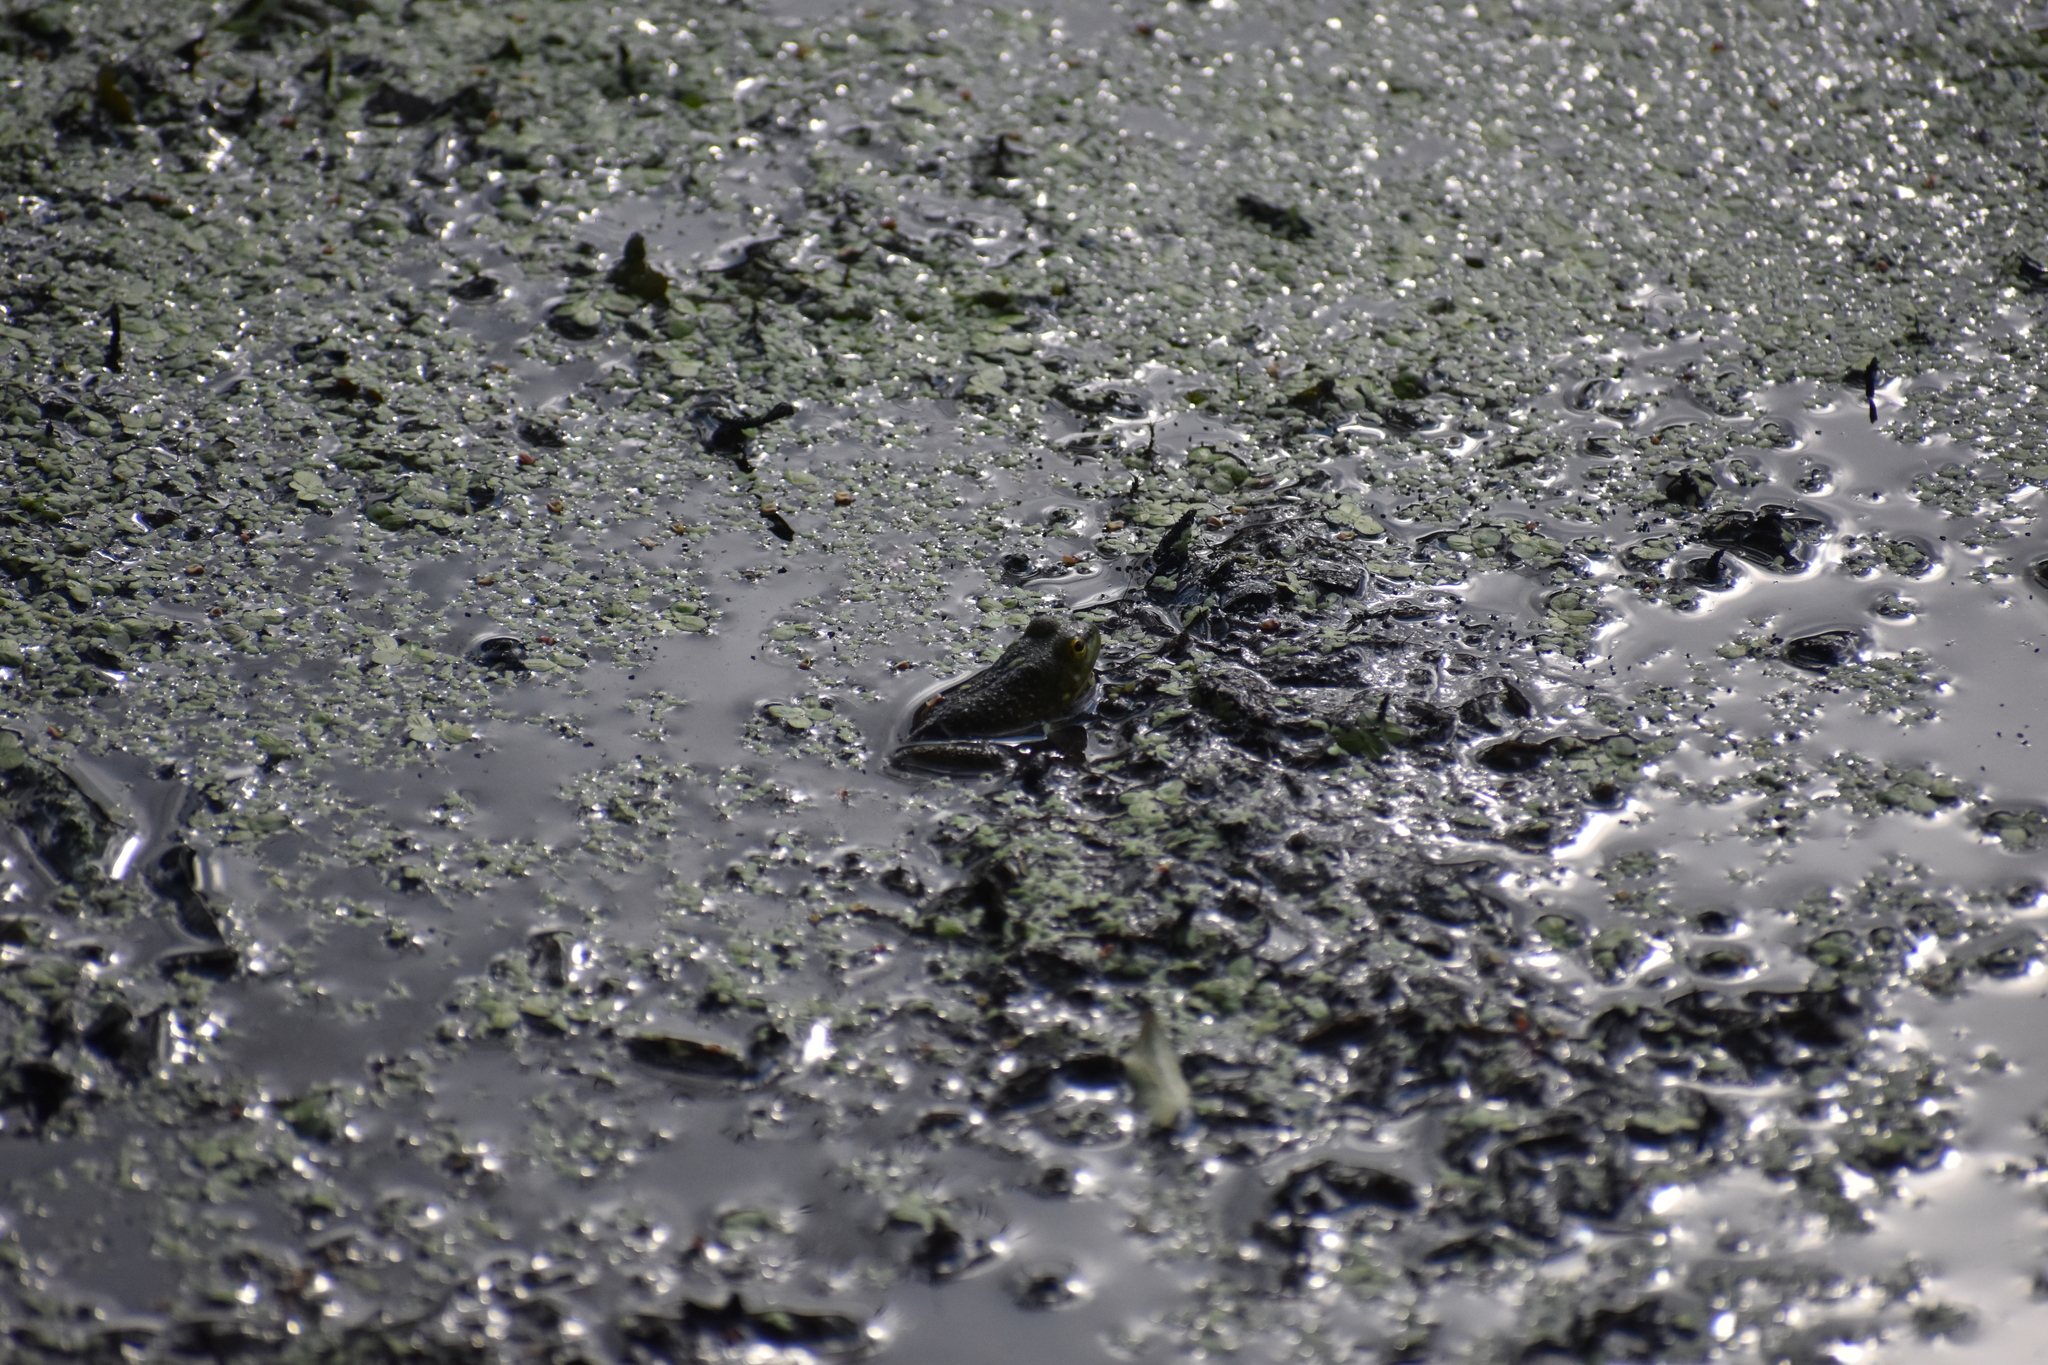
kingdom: Animalia
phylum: Chordata
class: Amphibia
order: Anura
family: Ranidae
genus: Lithobates
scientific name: Lithobates catesbeianus
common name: American bullfrog
